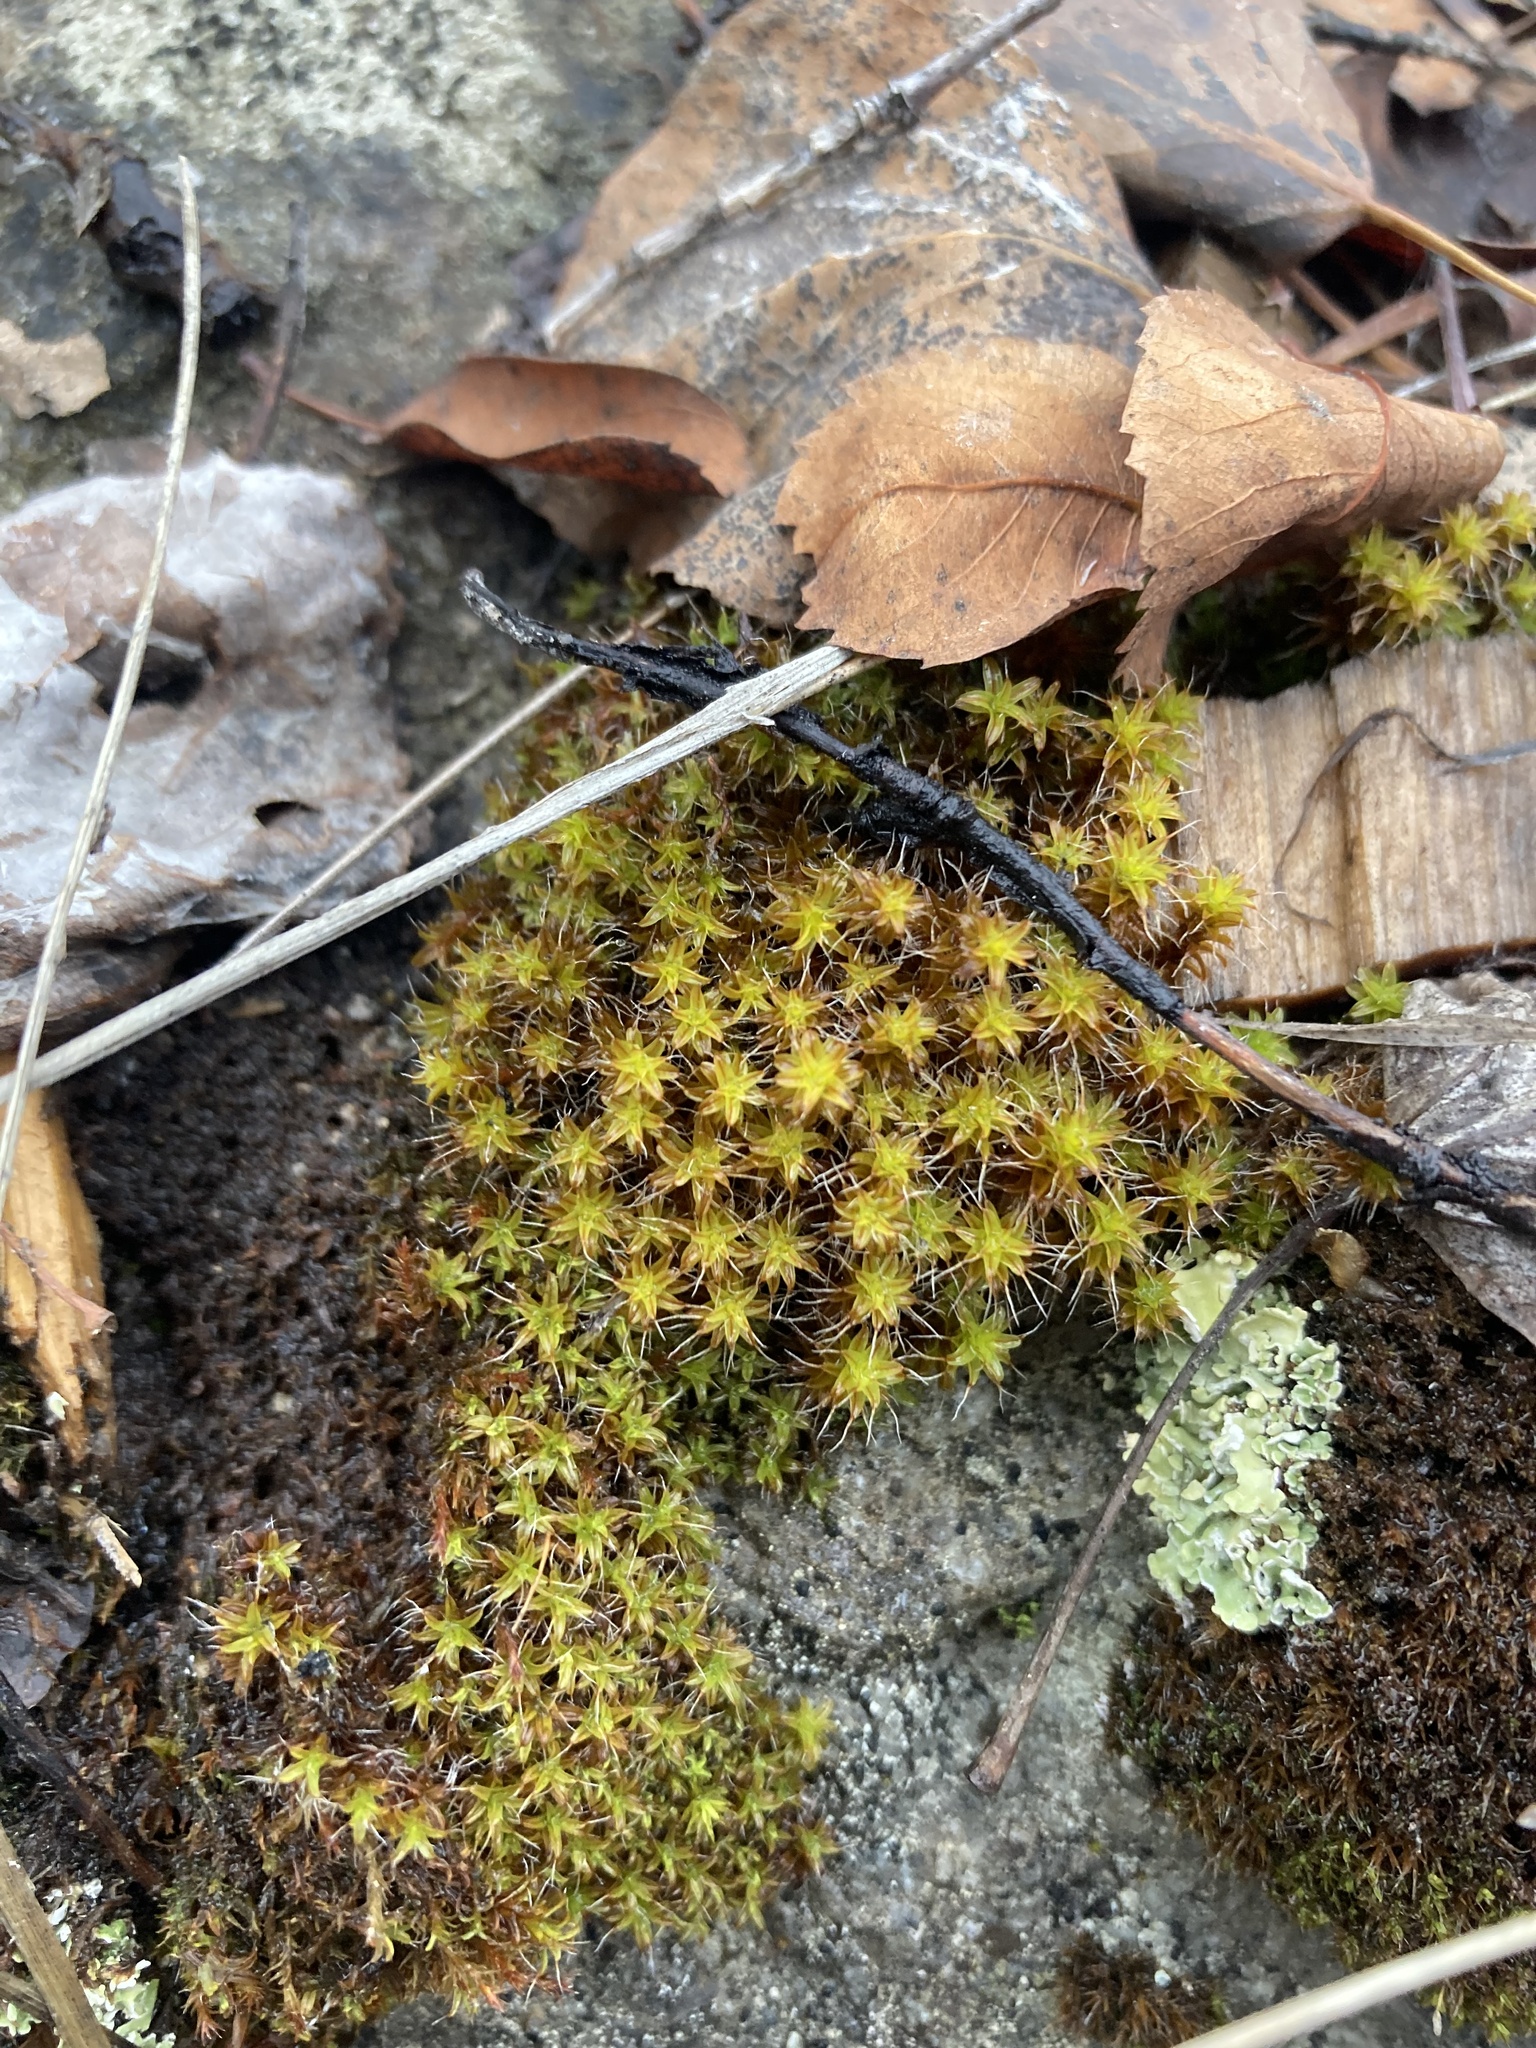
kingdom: Plantae
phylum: Bryophyta
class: Bryopsida
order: Pottiales
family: Pottiaceae
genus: Syntrichia
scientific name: Syntrichia ruralis
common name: Sidewalk screw moss
